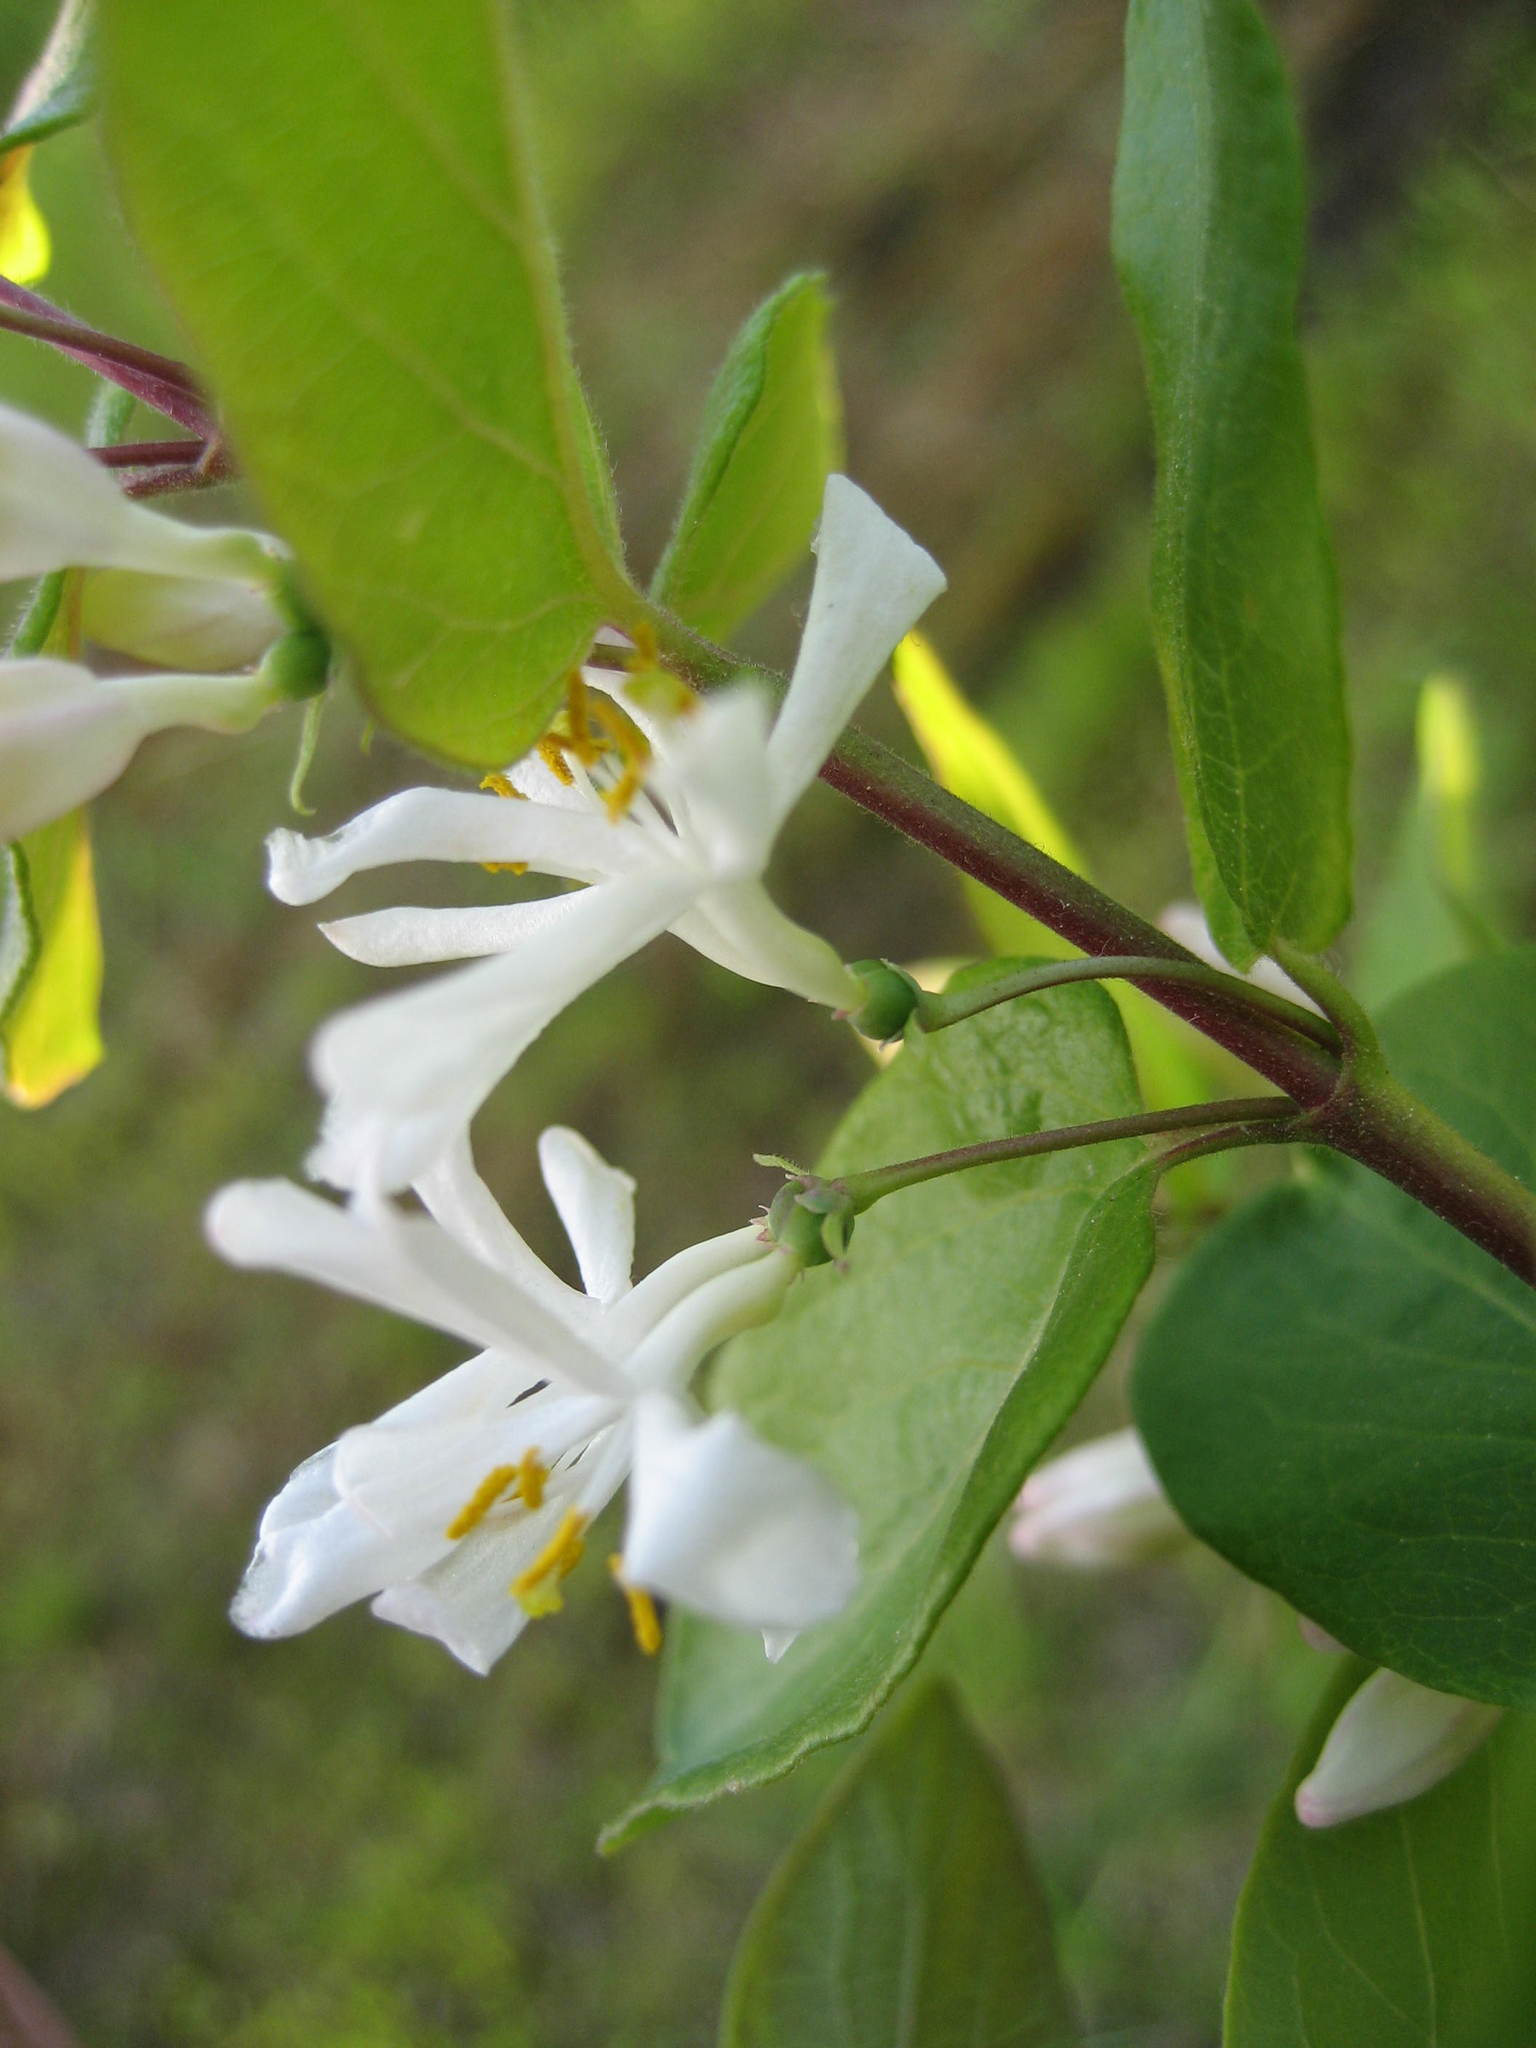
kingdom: Plantae
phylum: Tracheophyta
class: Magnoliopsida
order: Dipsacales
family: Caprifoliaceae
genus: Lonicera
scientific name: Lonicera bella
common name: Bell's honeysuckle
